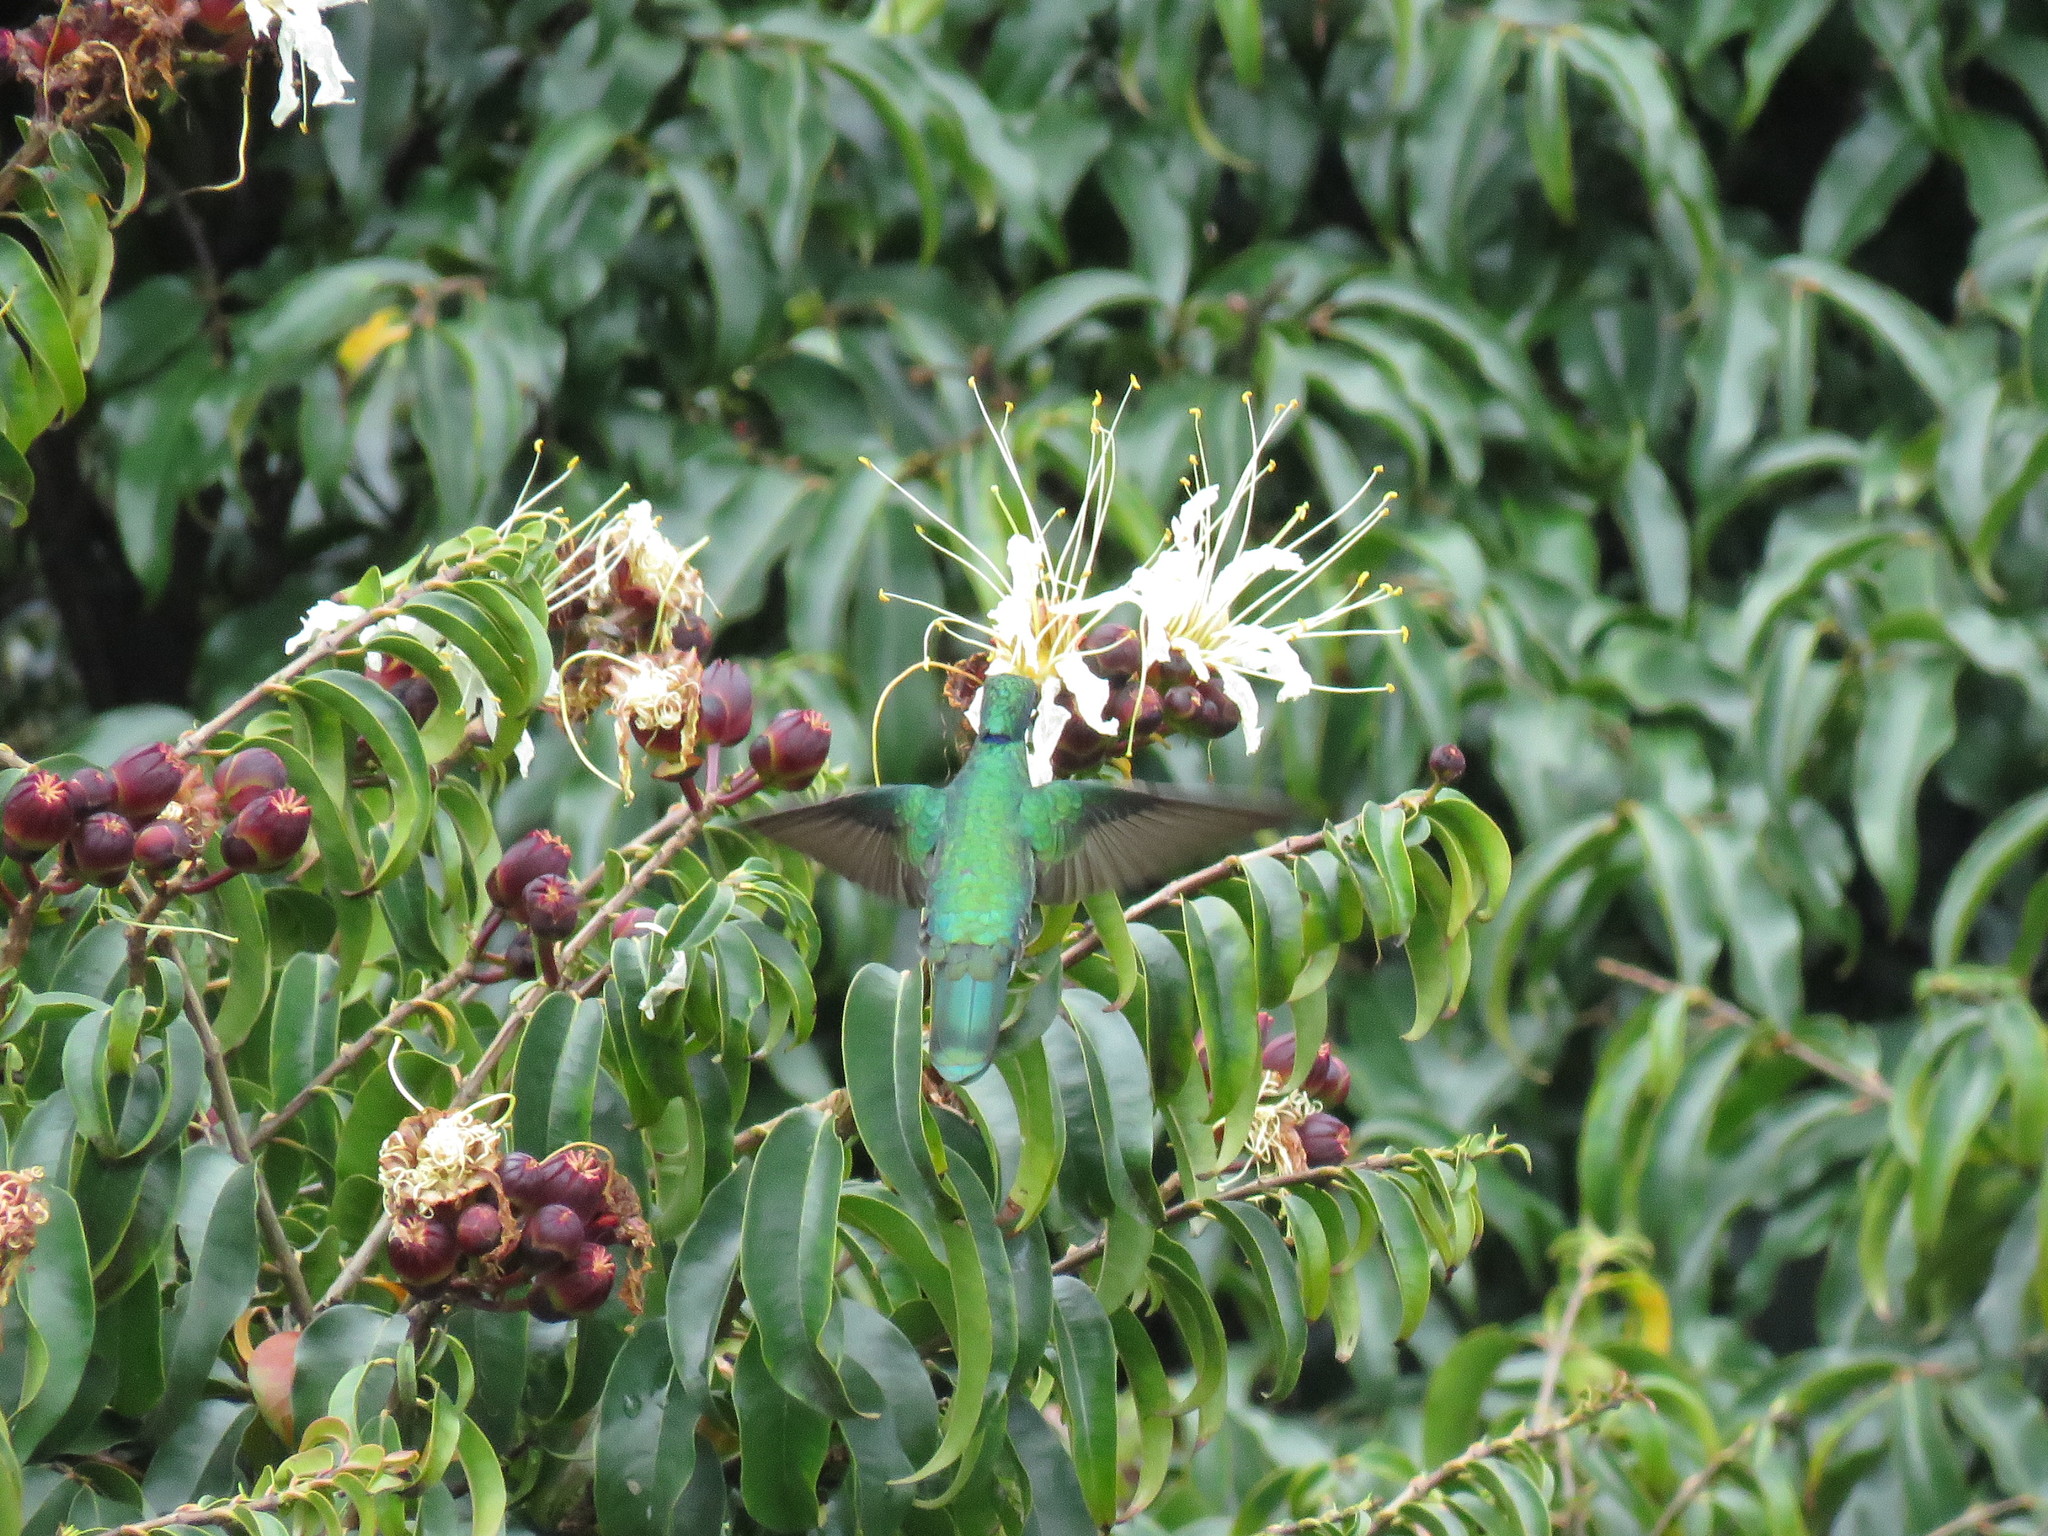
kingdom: Animalia
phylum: Chordata
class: Aves
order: Apodiformes
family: Trochilidae
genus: Colibri
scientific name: Colibri coruscans
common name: Sparkling violetear
